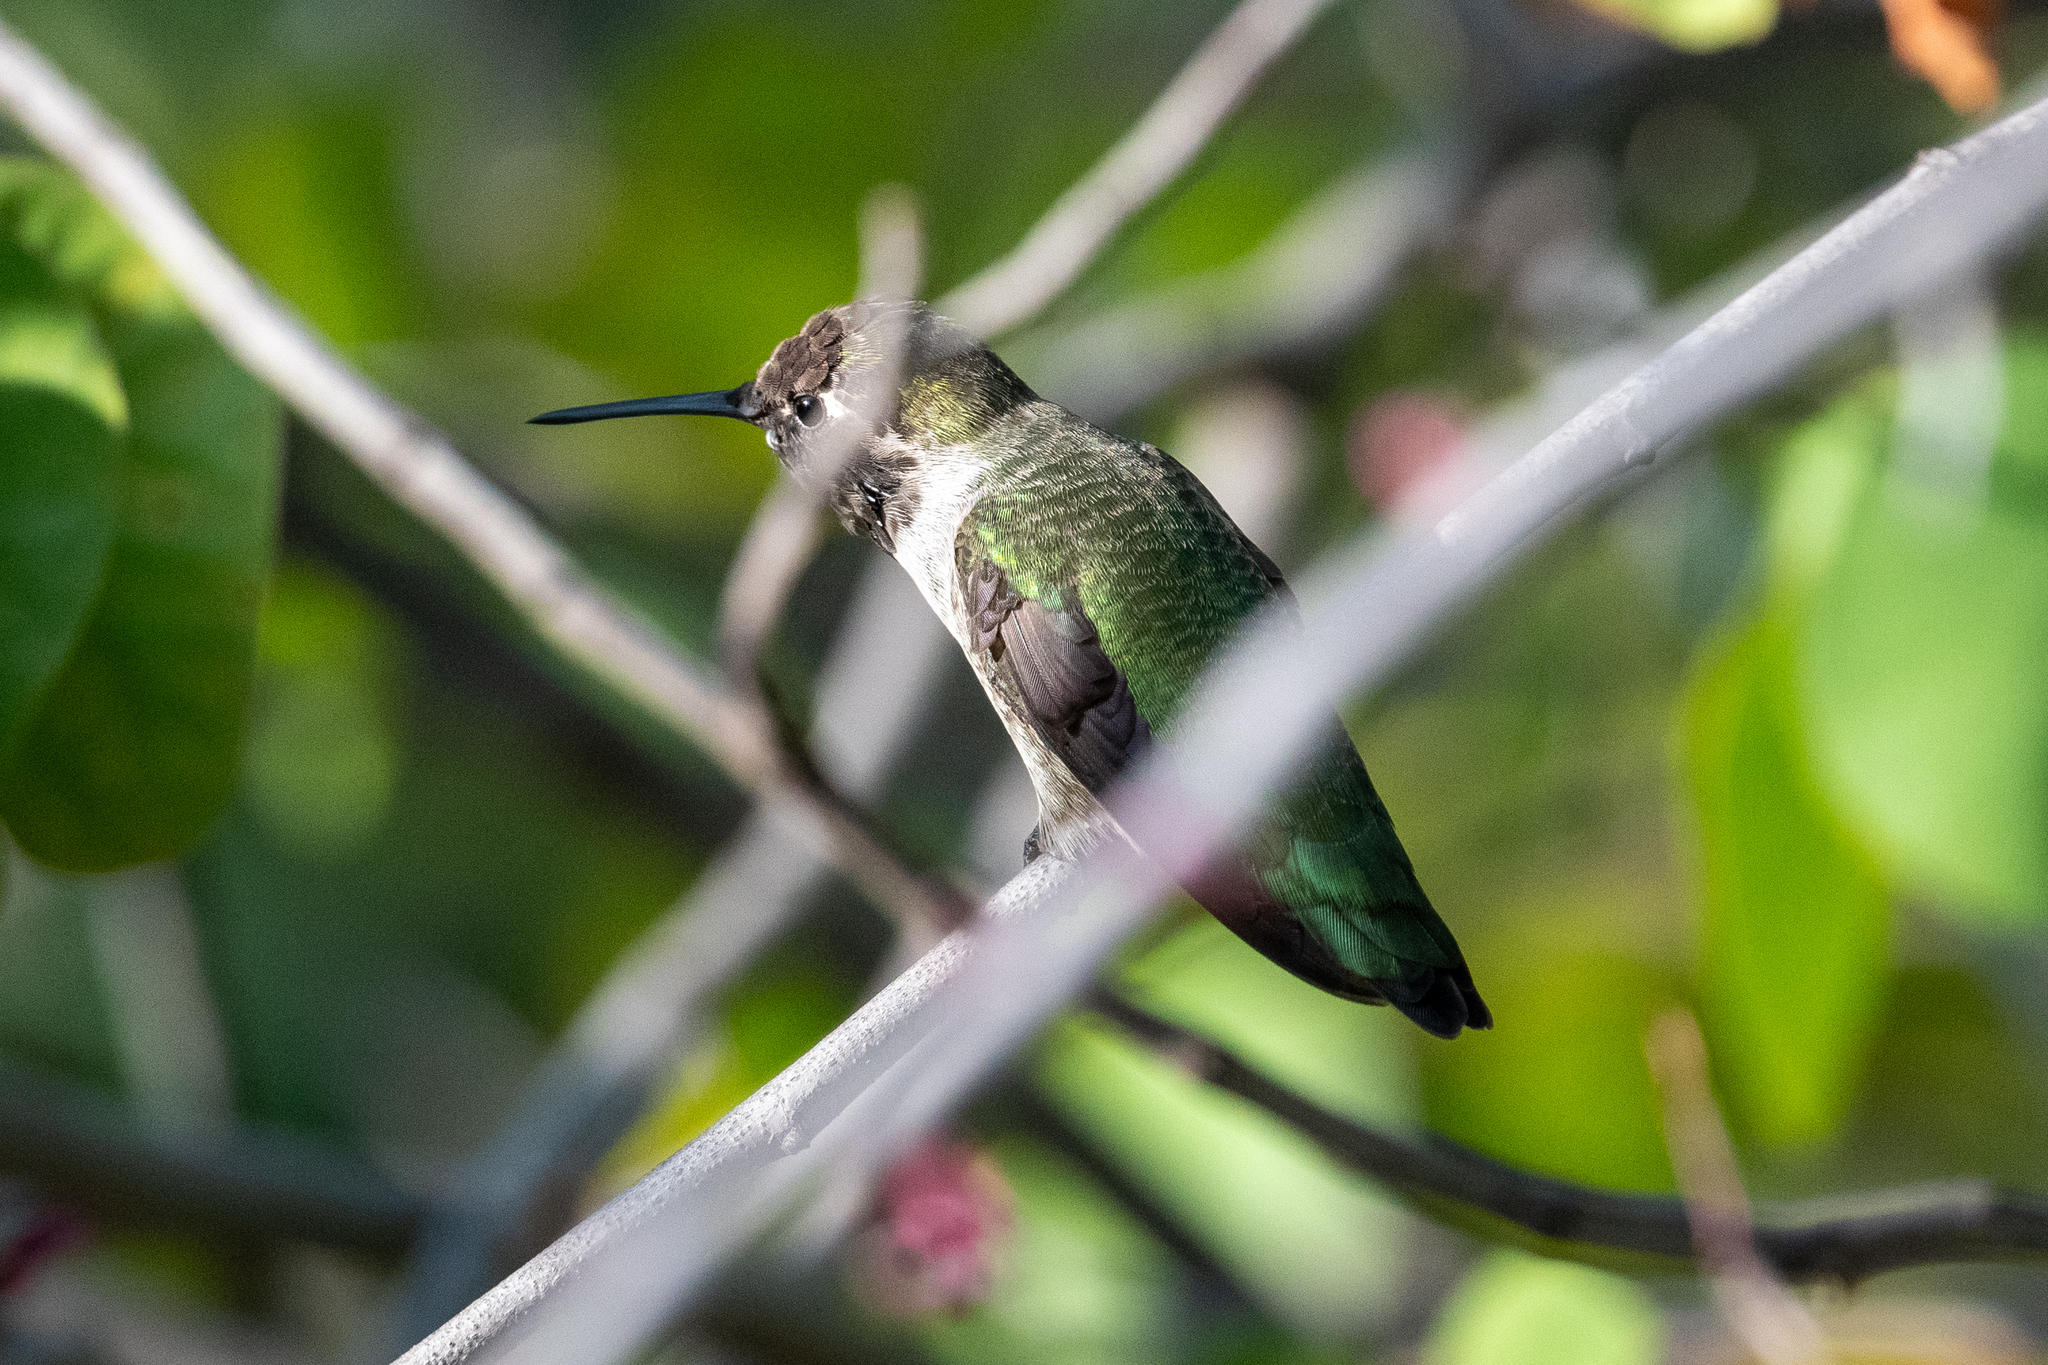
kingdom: Animalia
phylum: Chordata
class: Aves
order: Apodiformes
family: Trochilidae
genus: Calypte
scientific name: Calypte anna
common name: Anna's hummingbird
